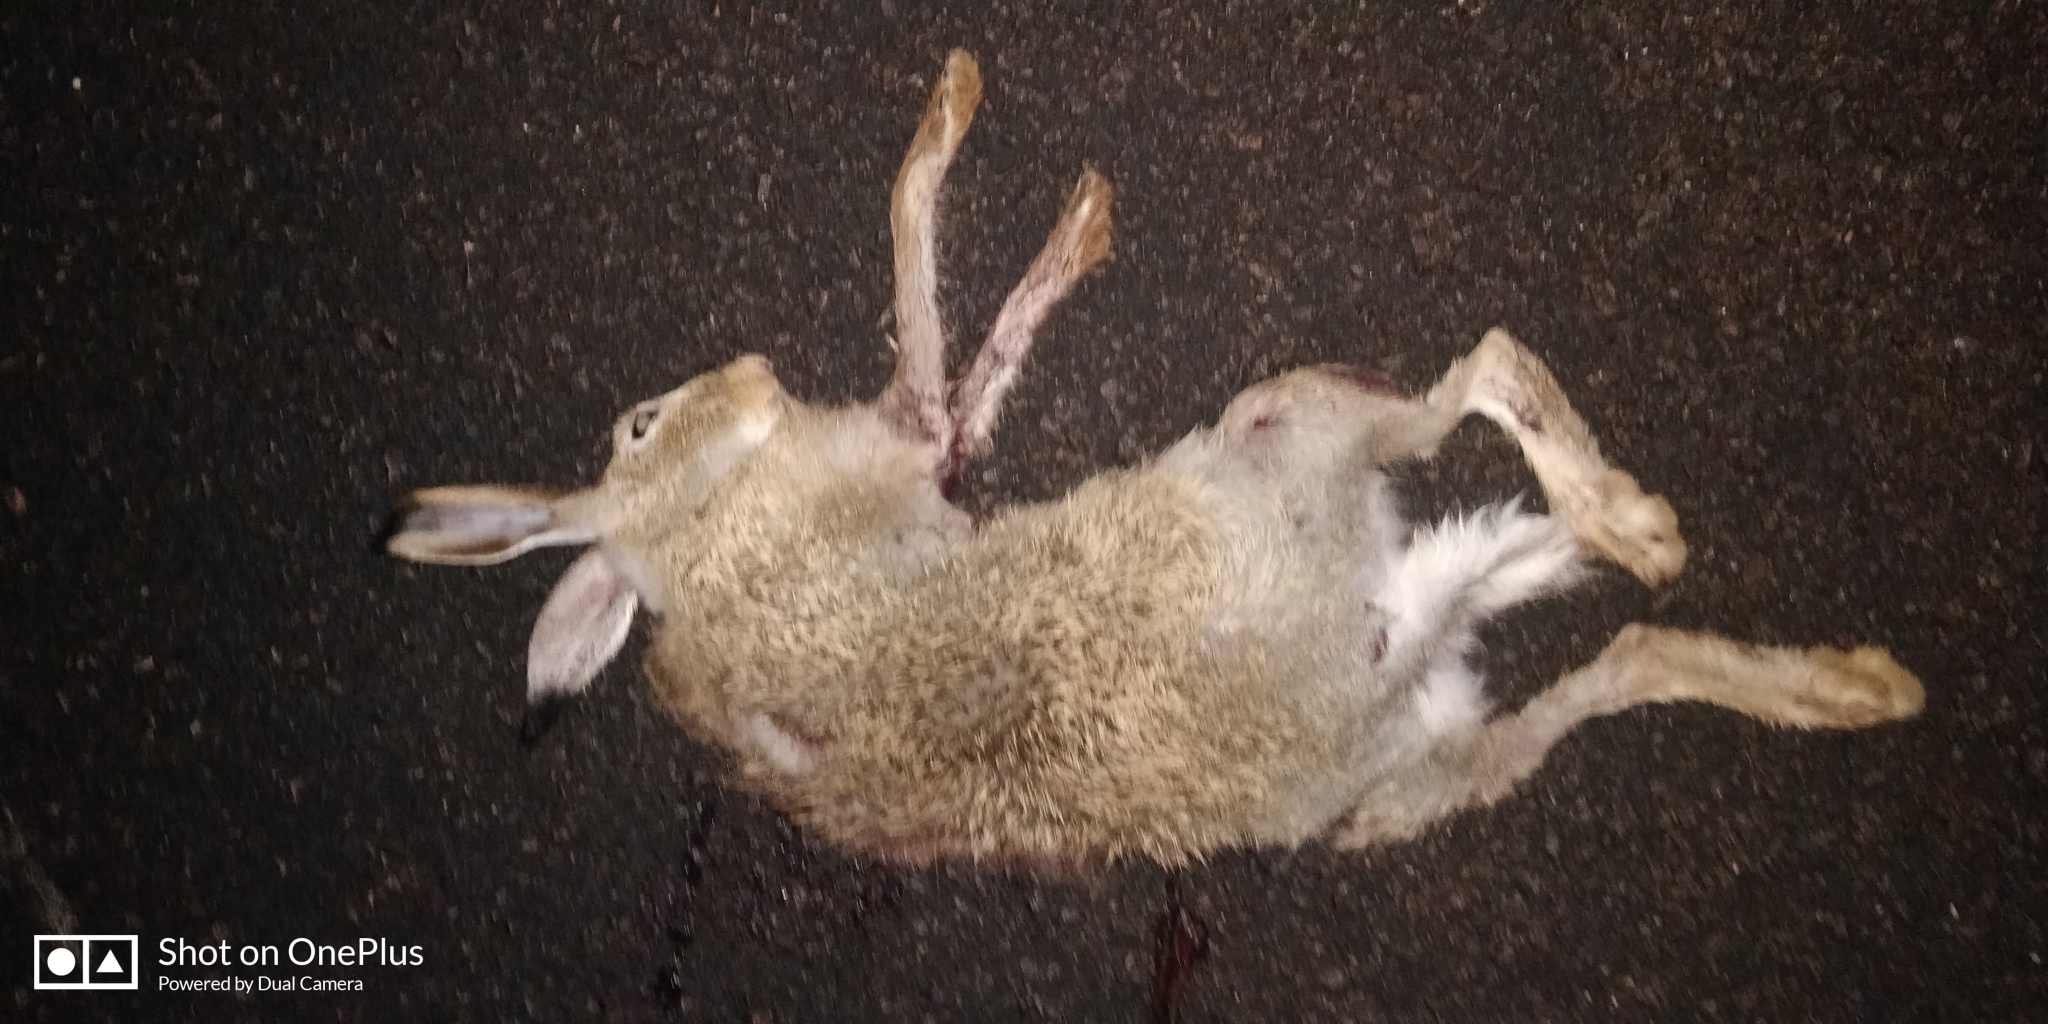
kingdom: Animalia
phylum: Chordata
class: Mammalia
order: Lagomorpha
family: Leporidae
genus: Lepus
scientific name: Lepus townsendii
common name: White-tailed jackrabbit
